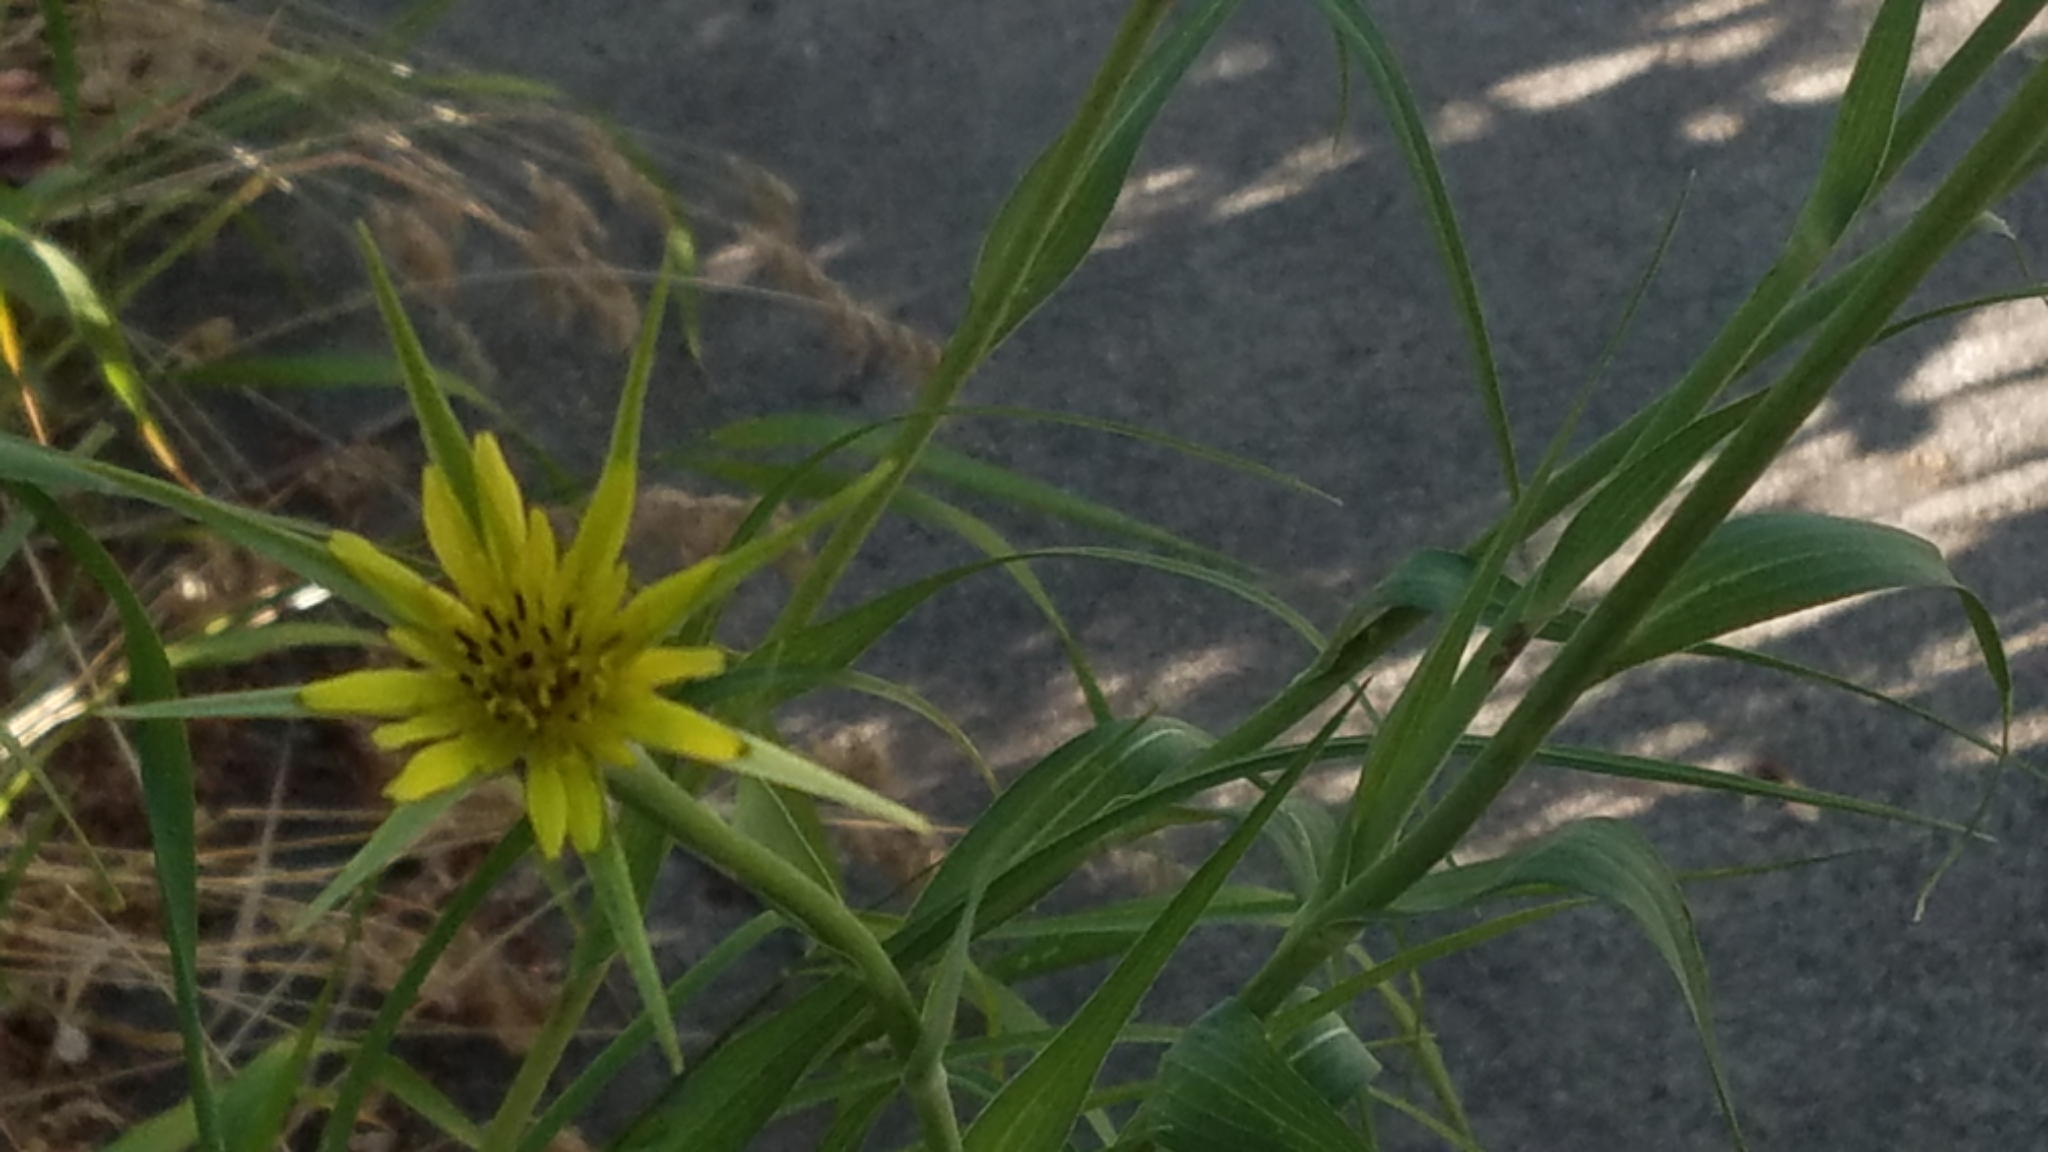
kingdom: Plantae
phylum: Tracheophyta
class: Magnoliopsida
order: Asterales
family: Asteraceae
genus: Tragopogon
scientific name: Tragopogon dubius
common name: Yellow salsify
